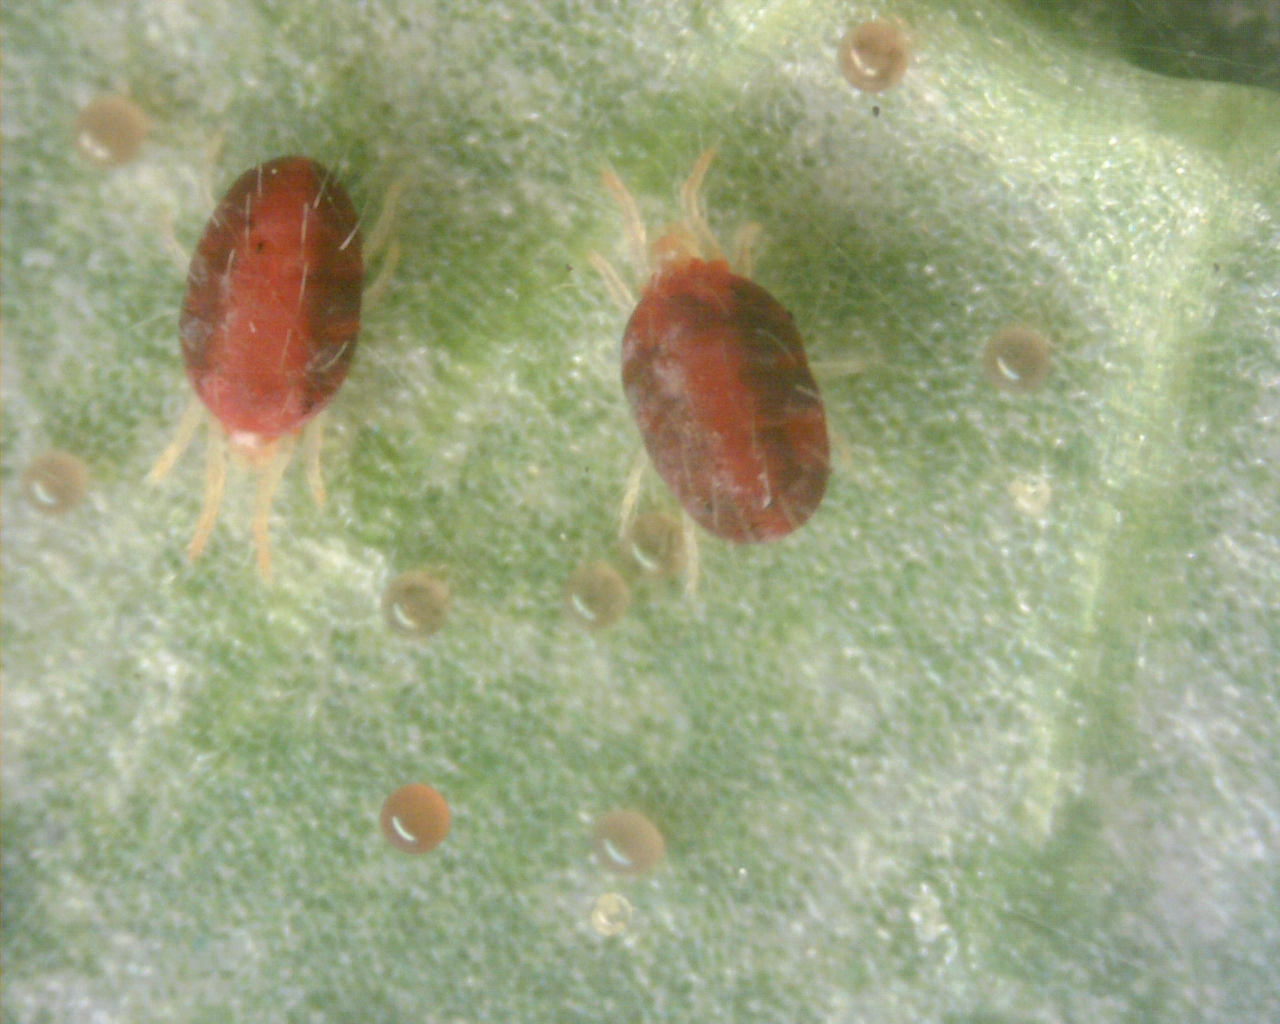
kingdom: Animalia
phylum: Arthropoda
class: Arachnida
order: Trombidiformes
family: Tetranychidae
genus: Tetranychus
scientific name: Tetranychus urticae
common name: Carmine spider mite
